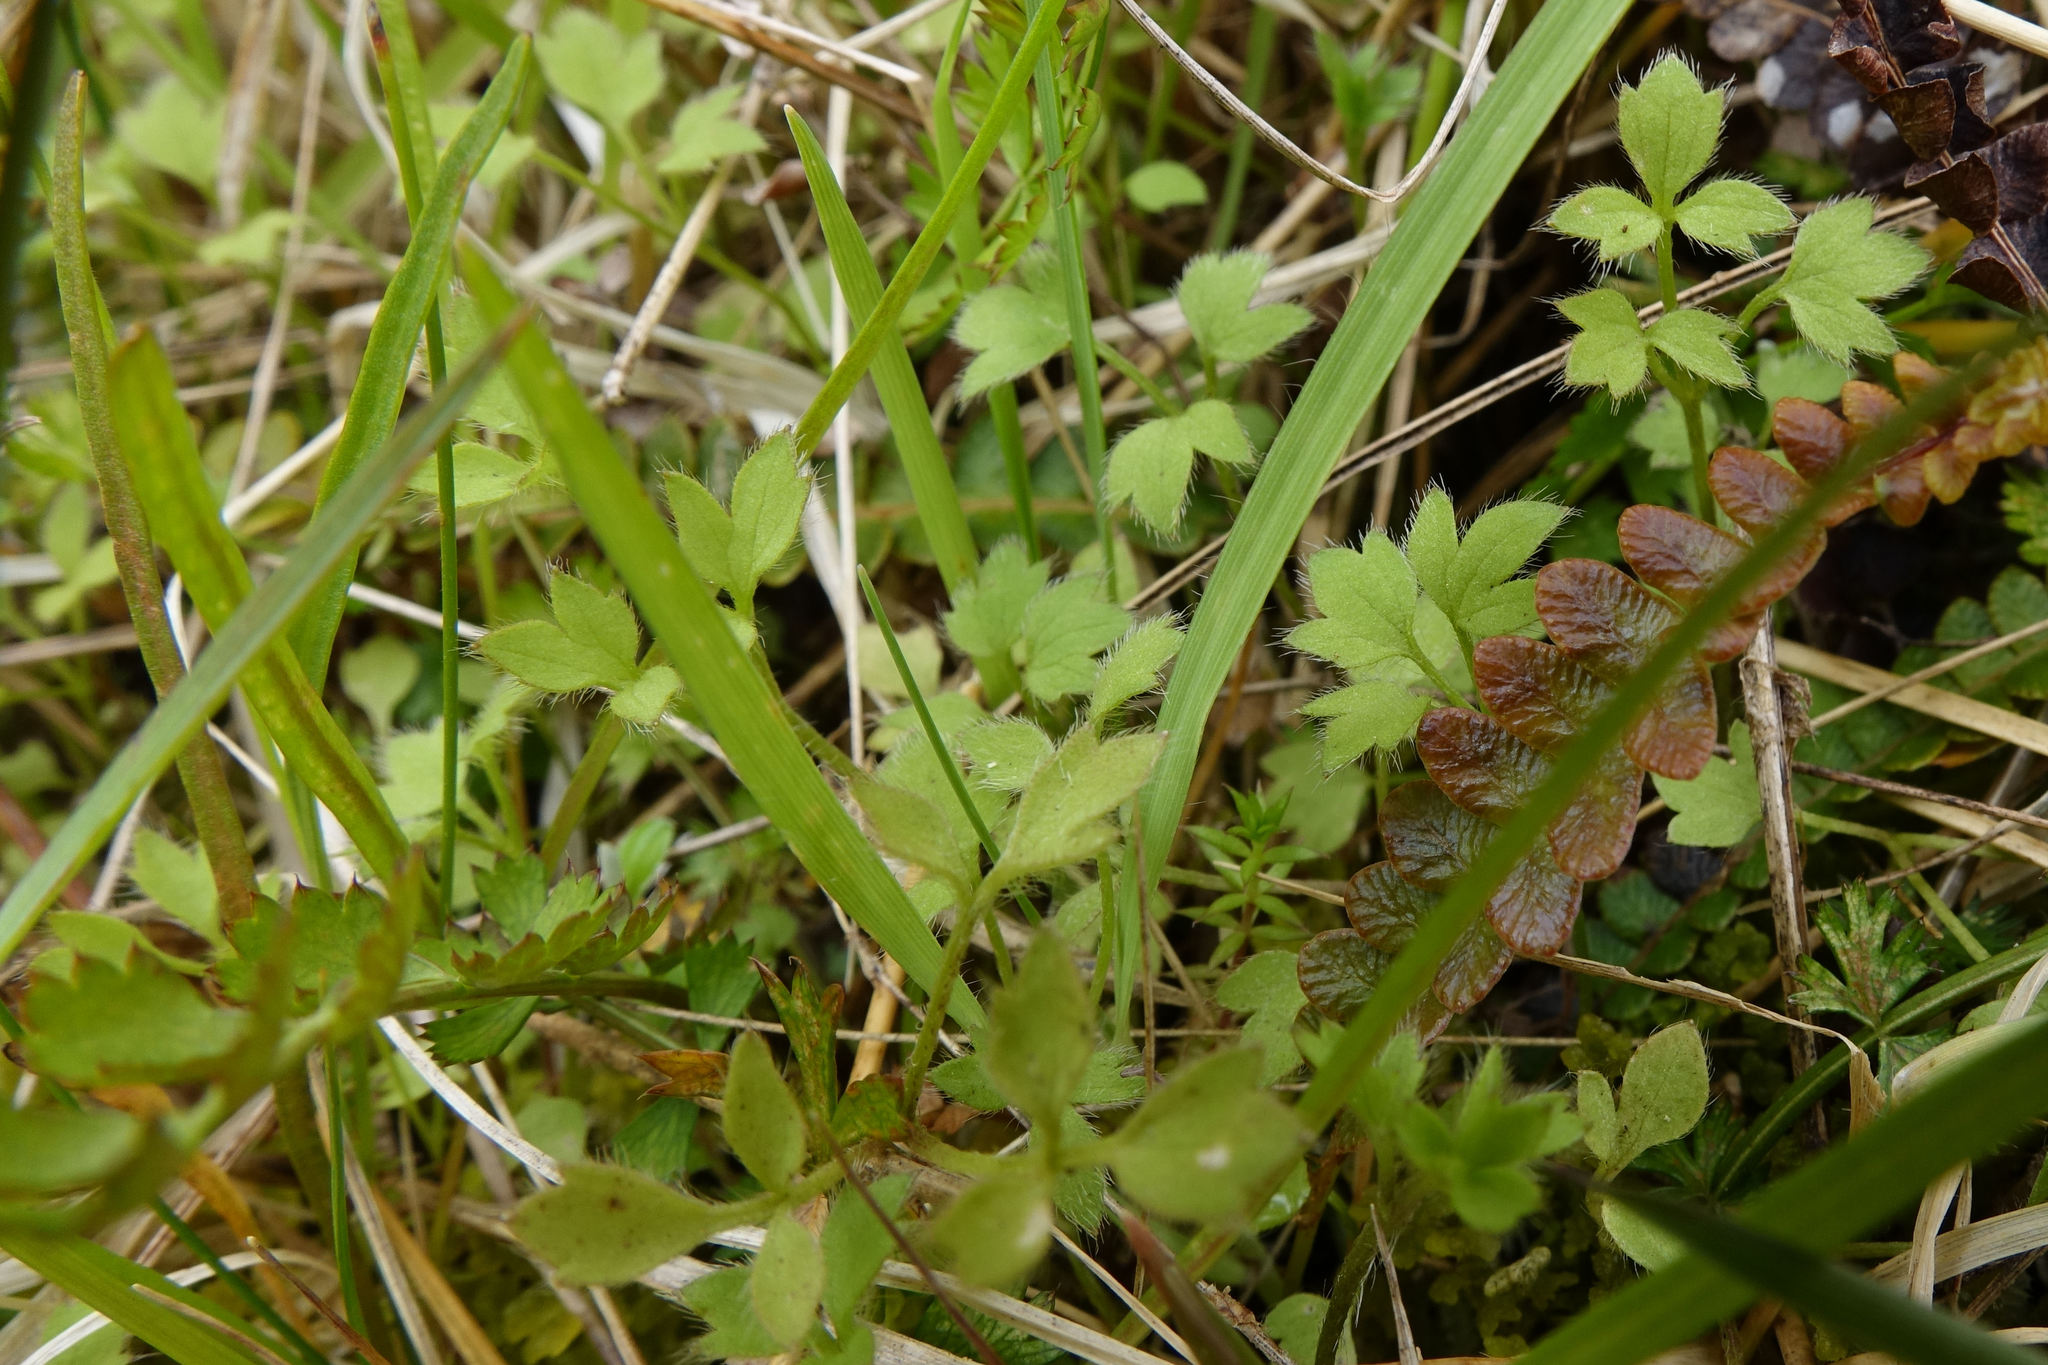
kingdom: Plantae
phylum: Tracheophyta
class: Magnoliopsida
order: Ranunculales
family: Ranunculaceae
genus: Ranunculus
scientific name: Ranunculus ternatifolius
